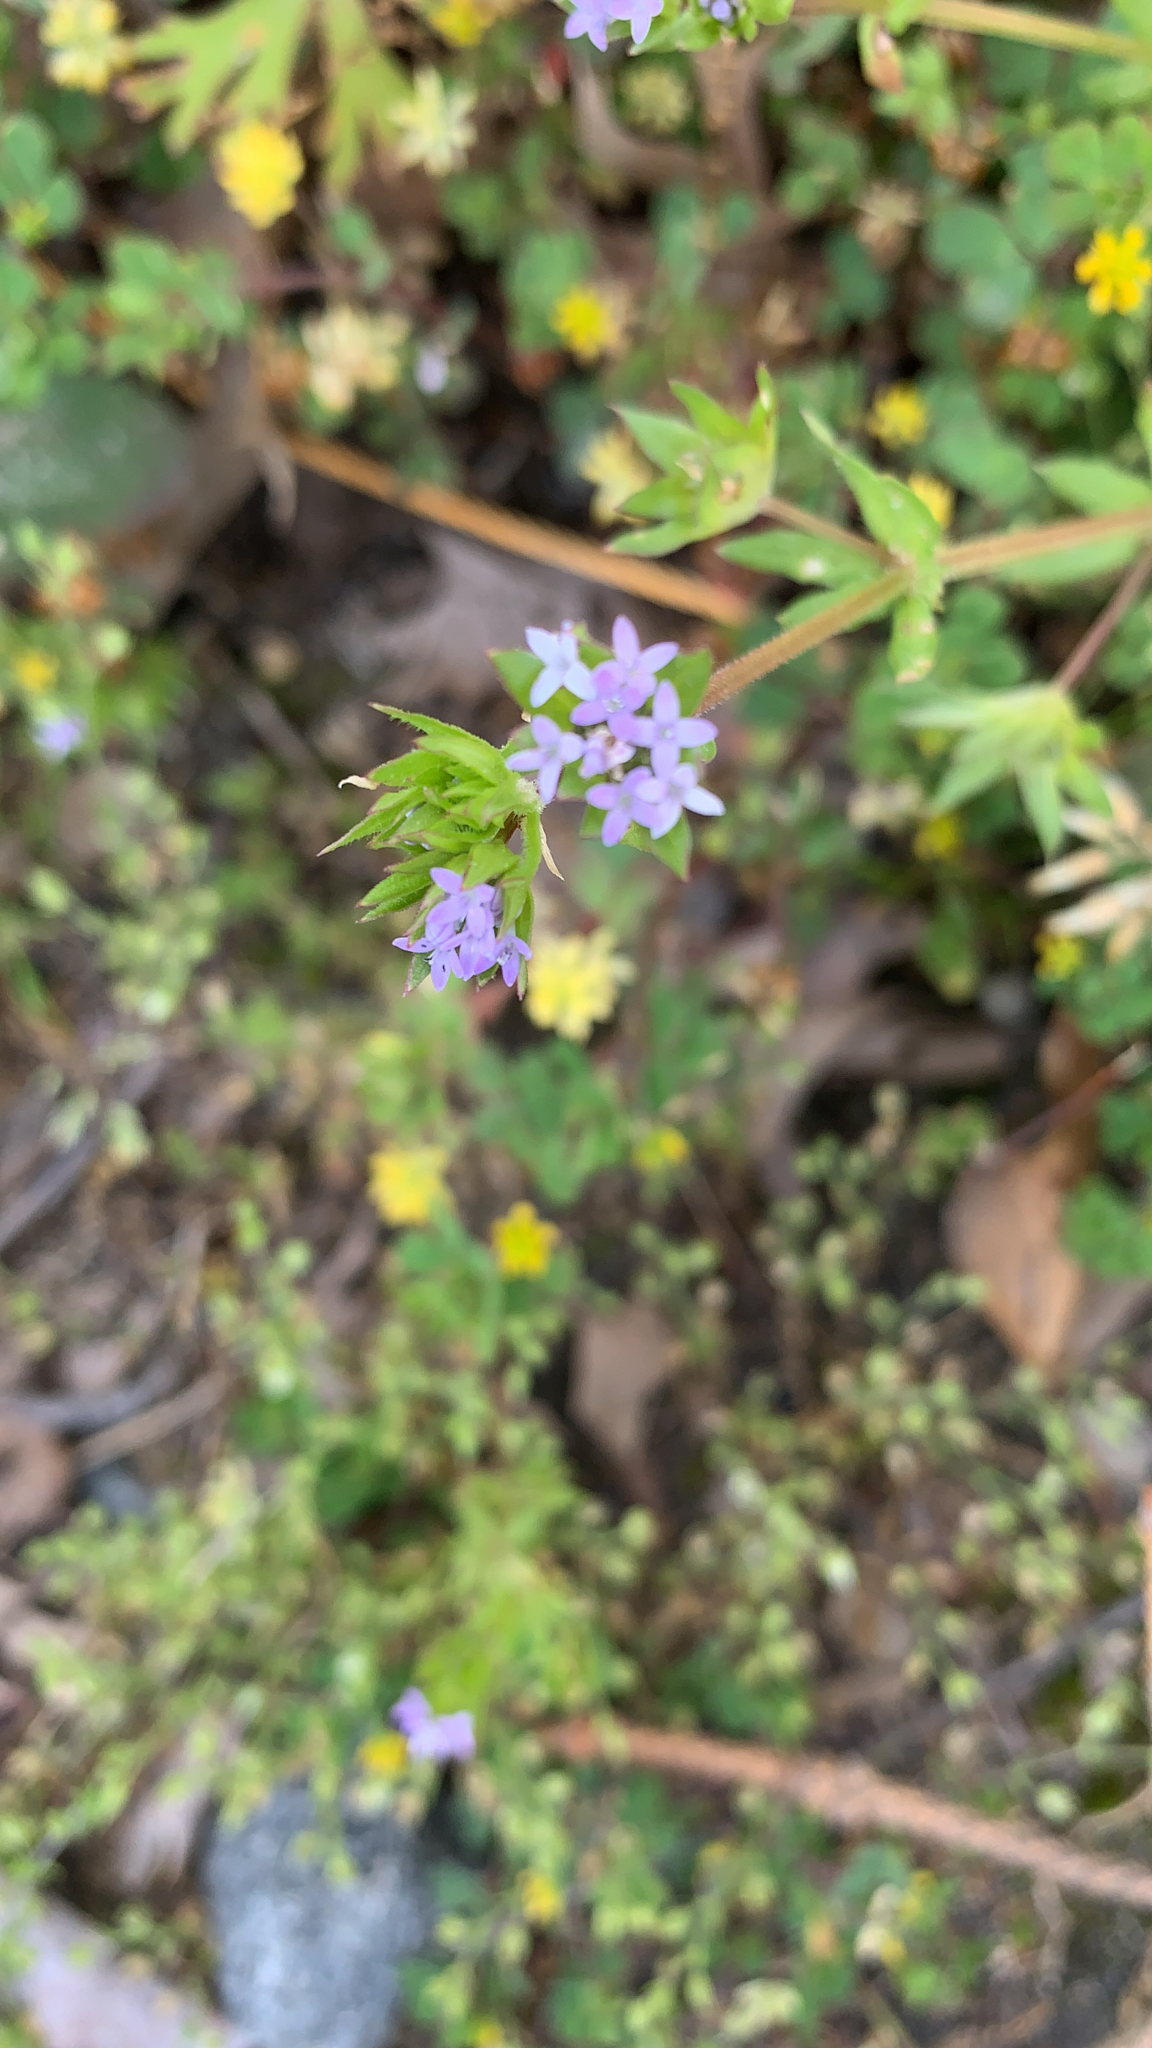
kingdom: Plantae
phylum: Tracheophyta
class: Magnoliopsida
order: Gentianales
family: Rubiaceae
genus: Sherardia
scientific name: Sherardia arvensis
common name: Field madder
